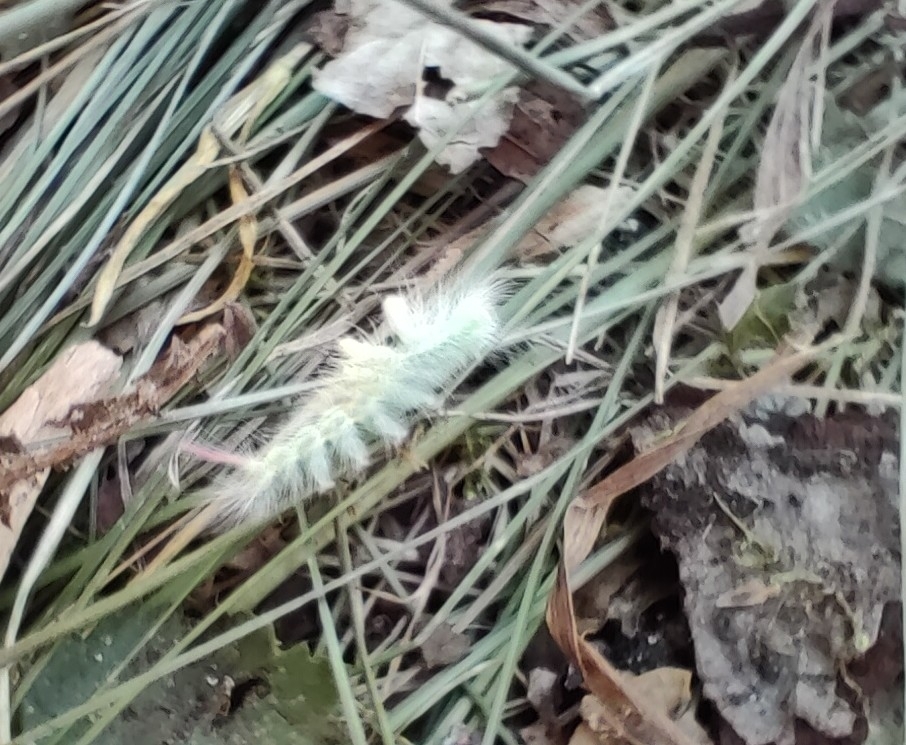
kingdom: Animalia
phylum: Arthropoda
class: Insecta
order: Lepidoptera
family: Erebidae
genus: Calliteara
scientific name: Calliteara pudibunda
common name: Pale tussock
